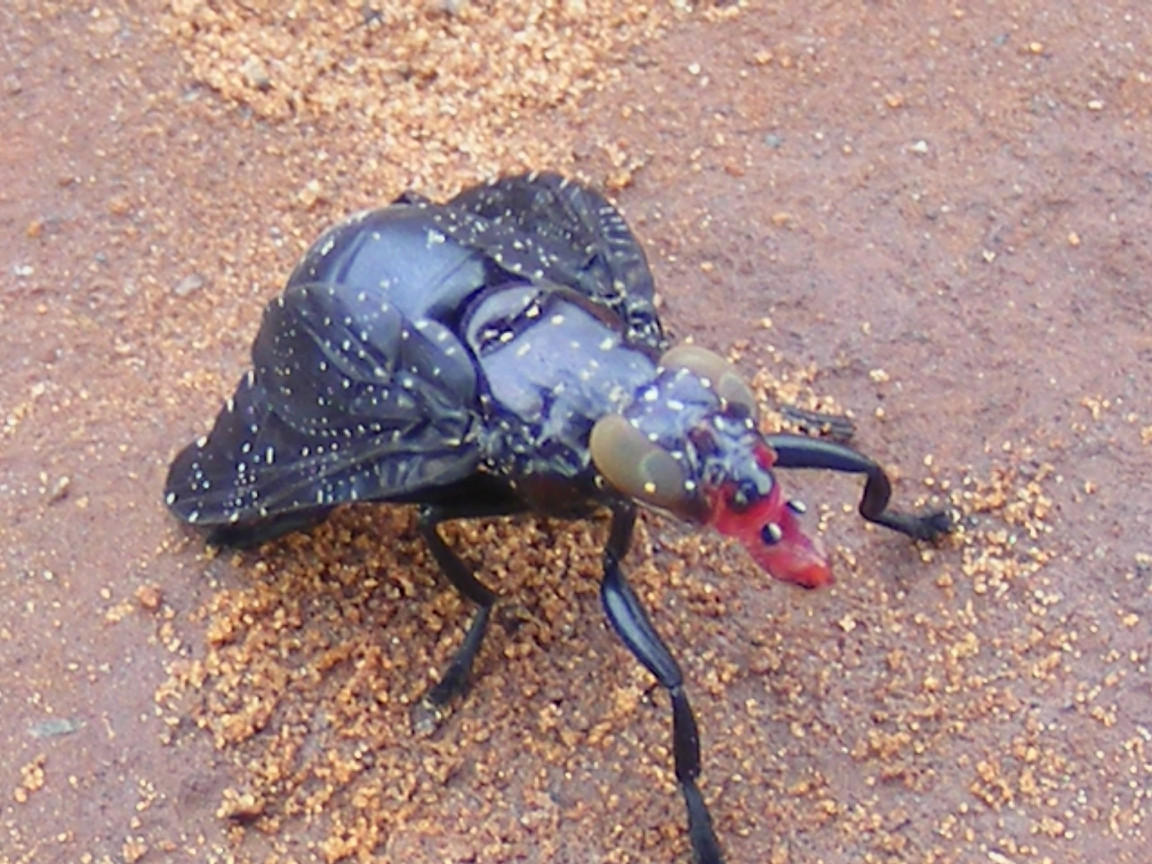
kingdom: Animalia
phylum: Arthropoda
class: Insecta
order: Diptera
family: Platystomatidae
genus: Palpomya
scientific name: Palpomya asphaltina
